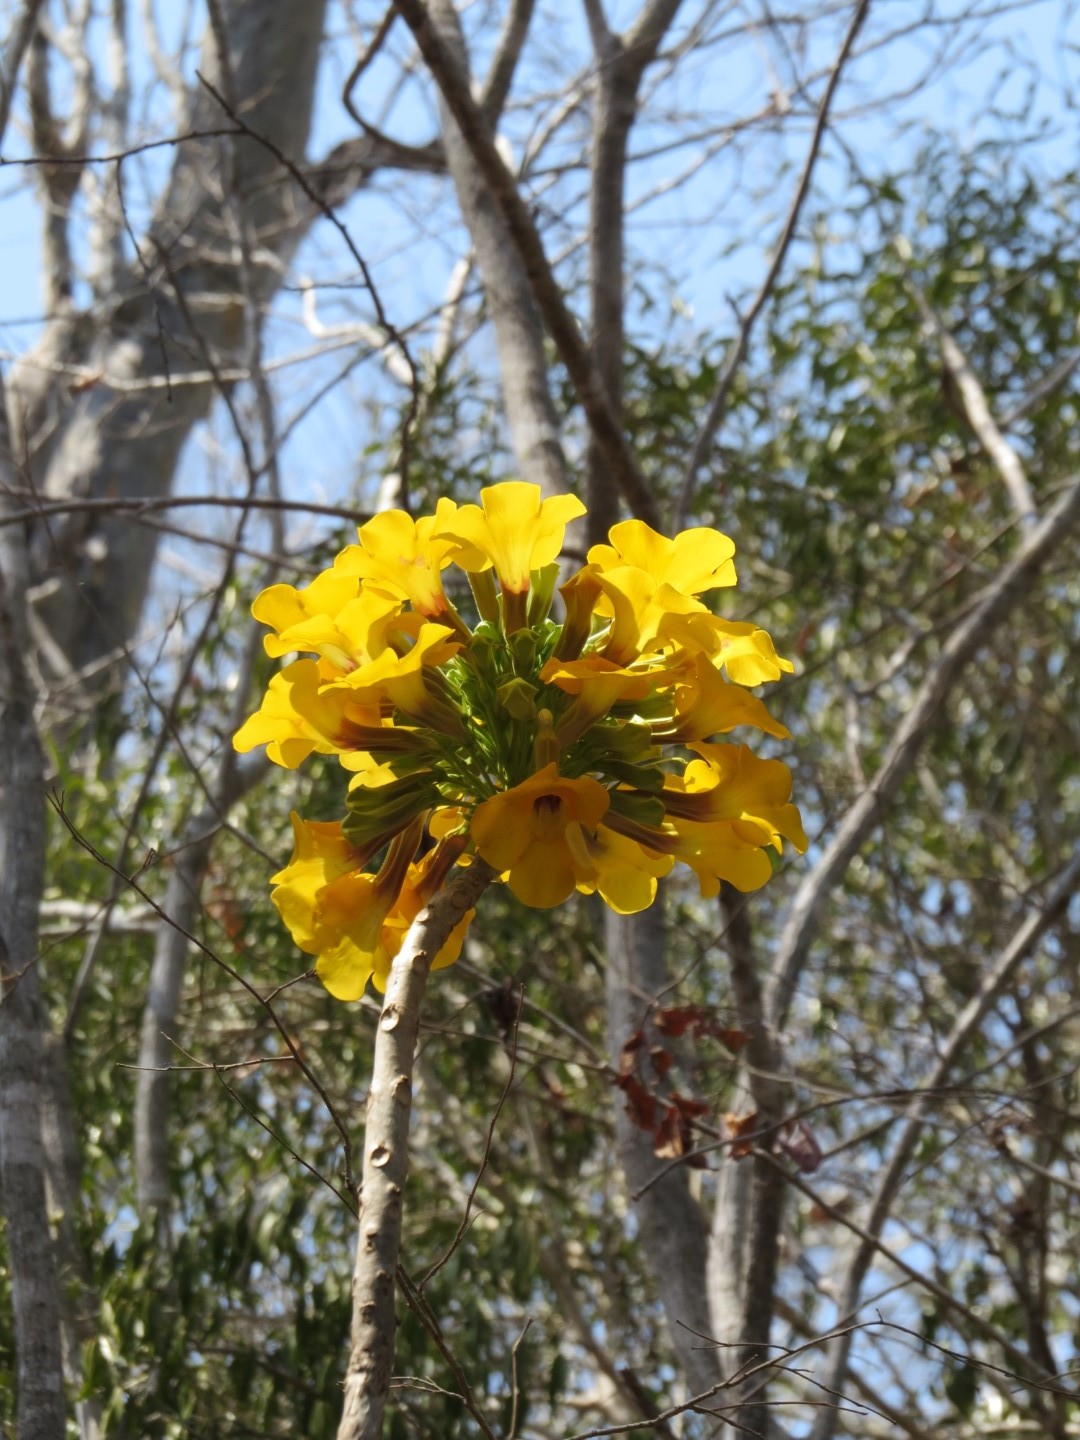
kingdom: Plantae
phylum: Tracheophyta
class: Magnoliopsida
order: Lamiales
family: Pedaliaceae
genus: Uncarina
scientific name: Uncarina leandrii
